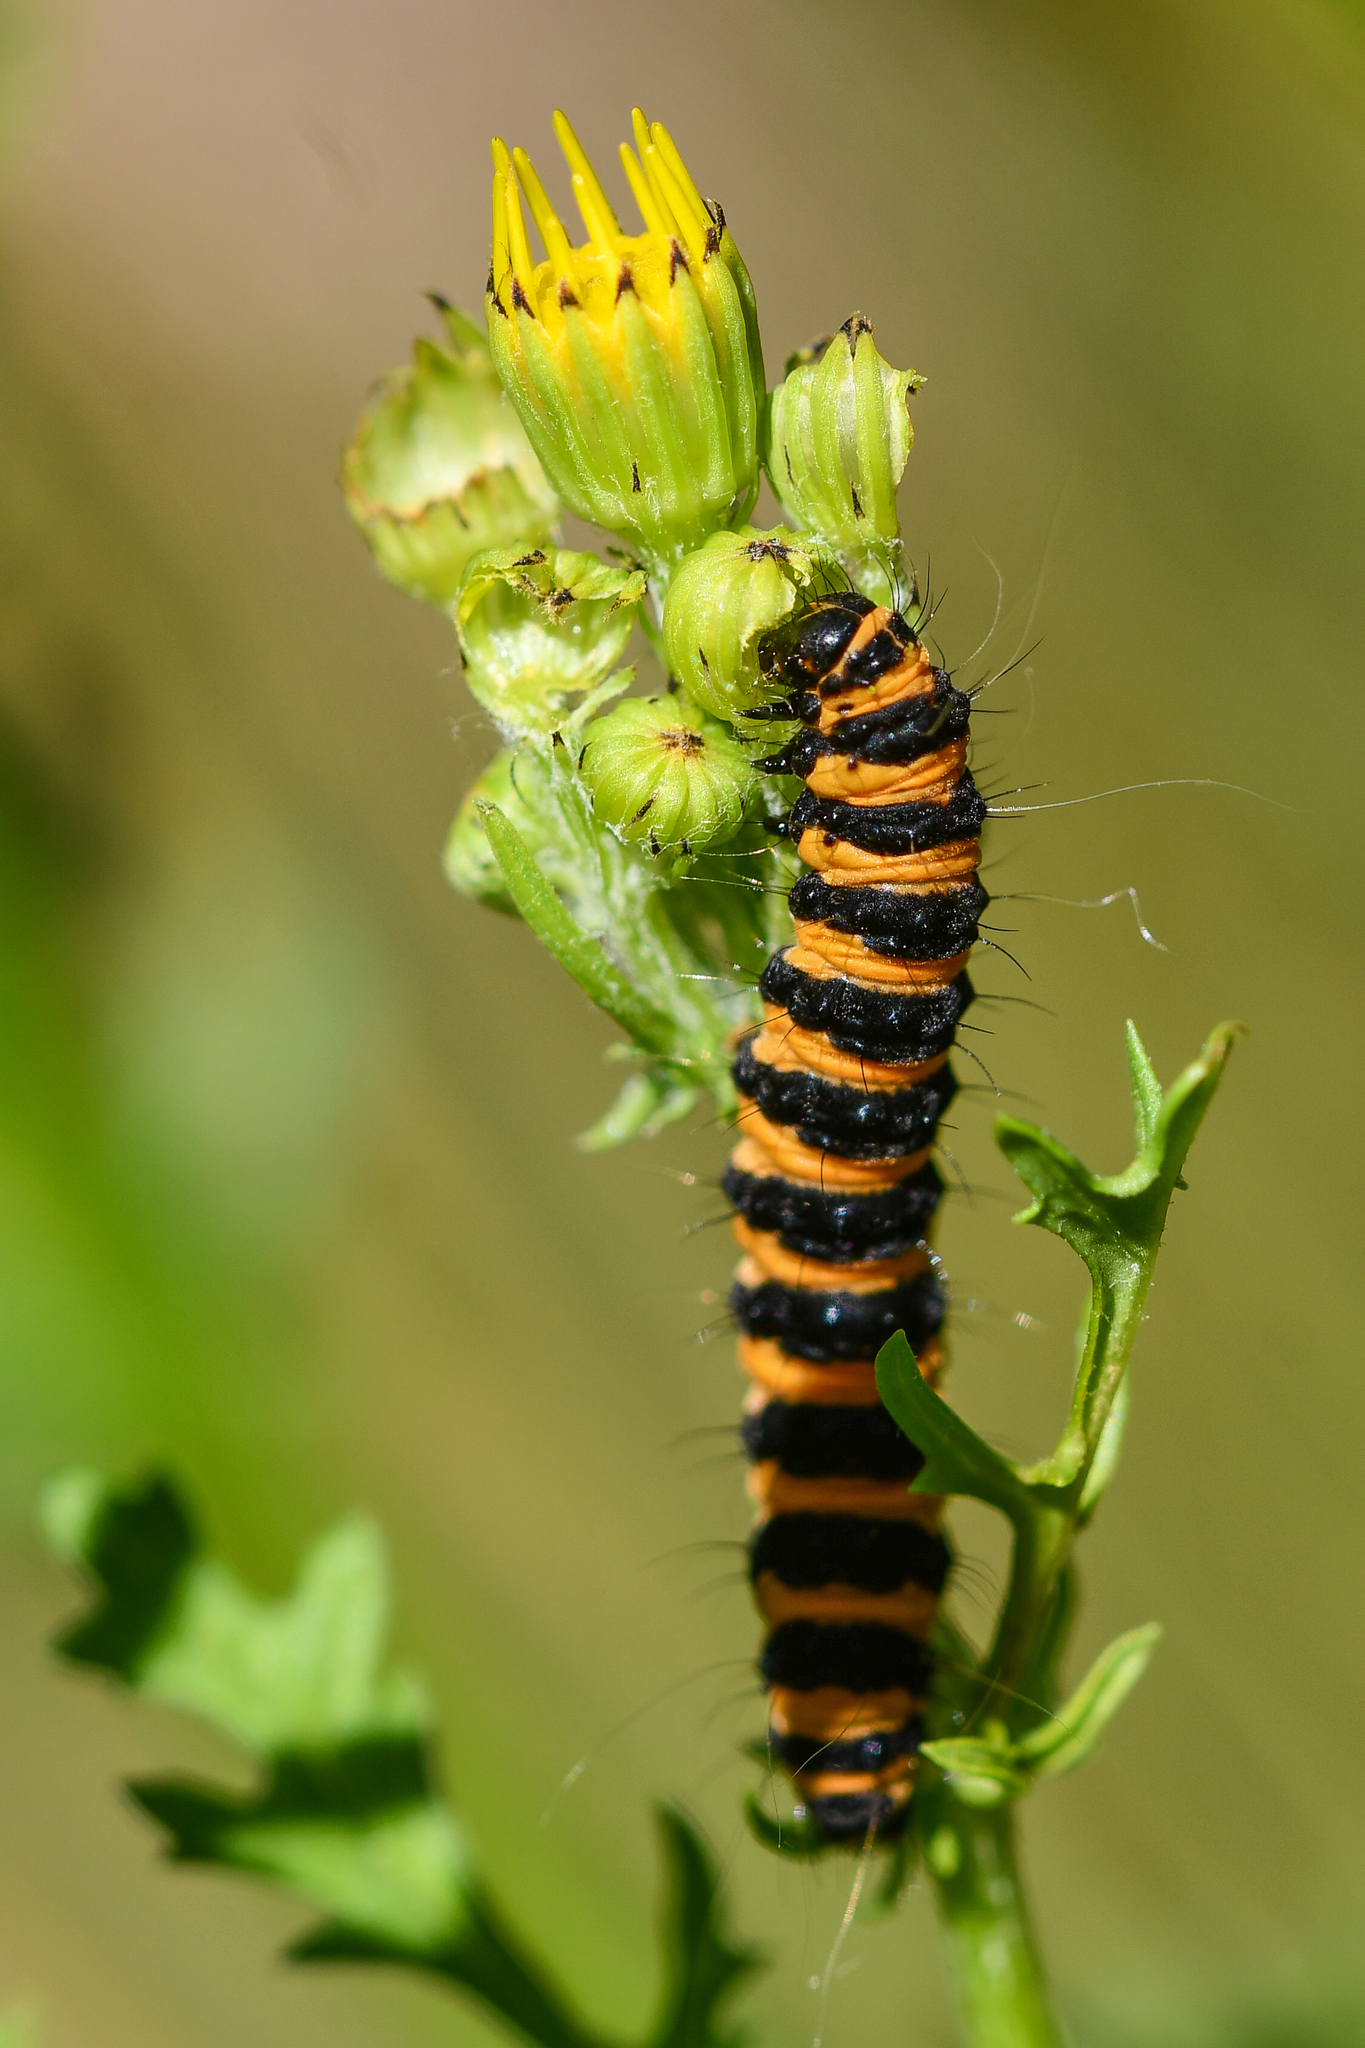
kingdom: Animalia
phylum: Arthropoda
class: Insecta
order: Lepidoptera
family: Erebidae
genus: Tyria
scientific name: Tyria jacobaeae
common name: Cinnabar
